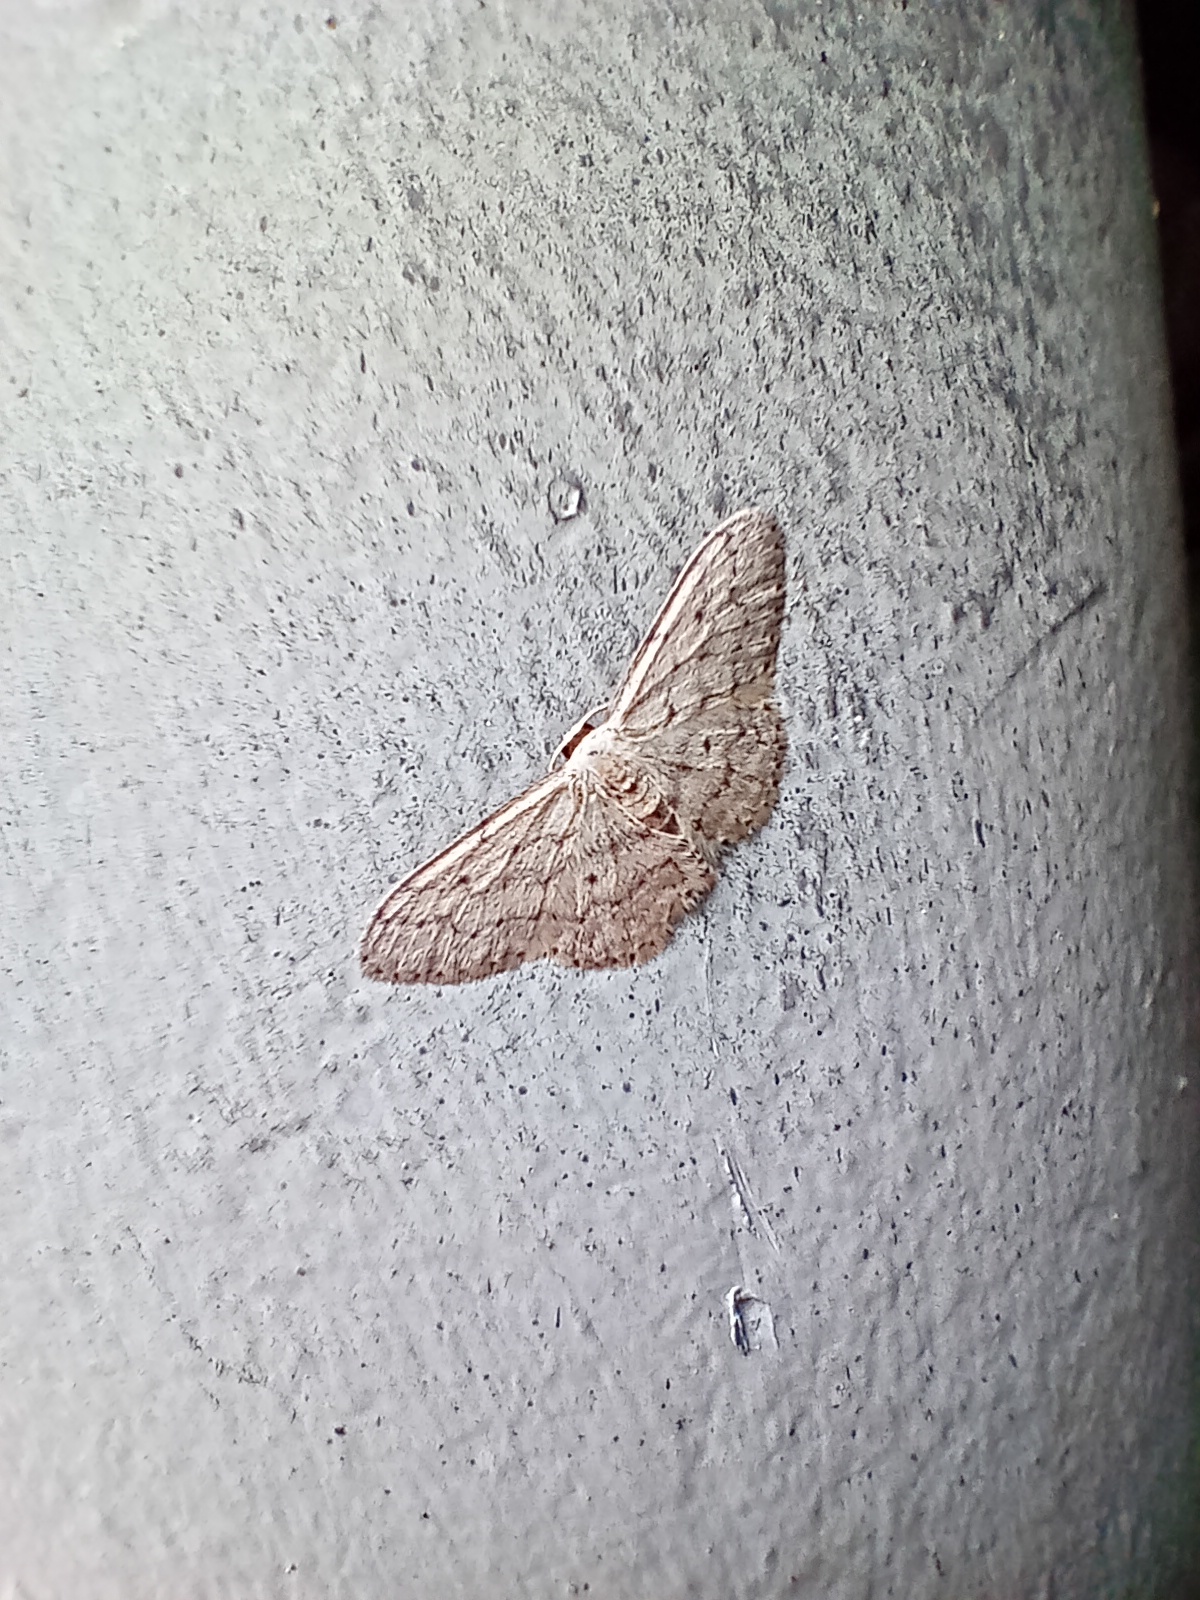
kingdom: Animalia
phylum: Arthropoda
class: Insecta
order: Lepidoptera
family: Geometridae
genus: Idaea
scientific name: Idaea seriata
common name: Small dusty wave
